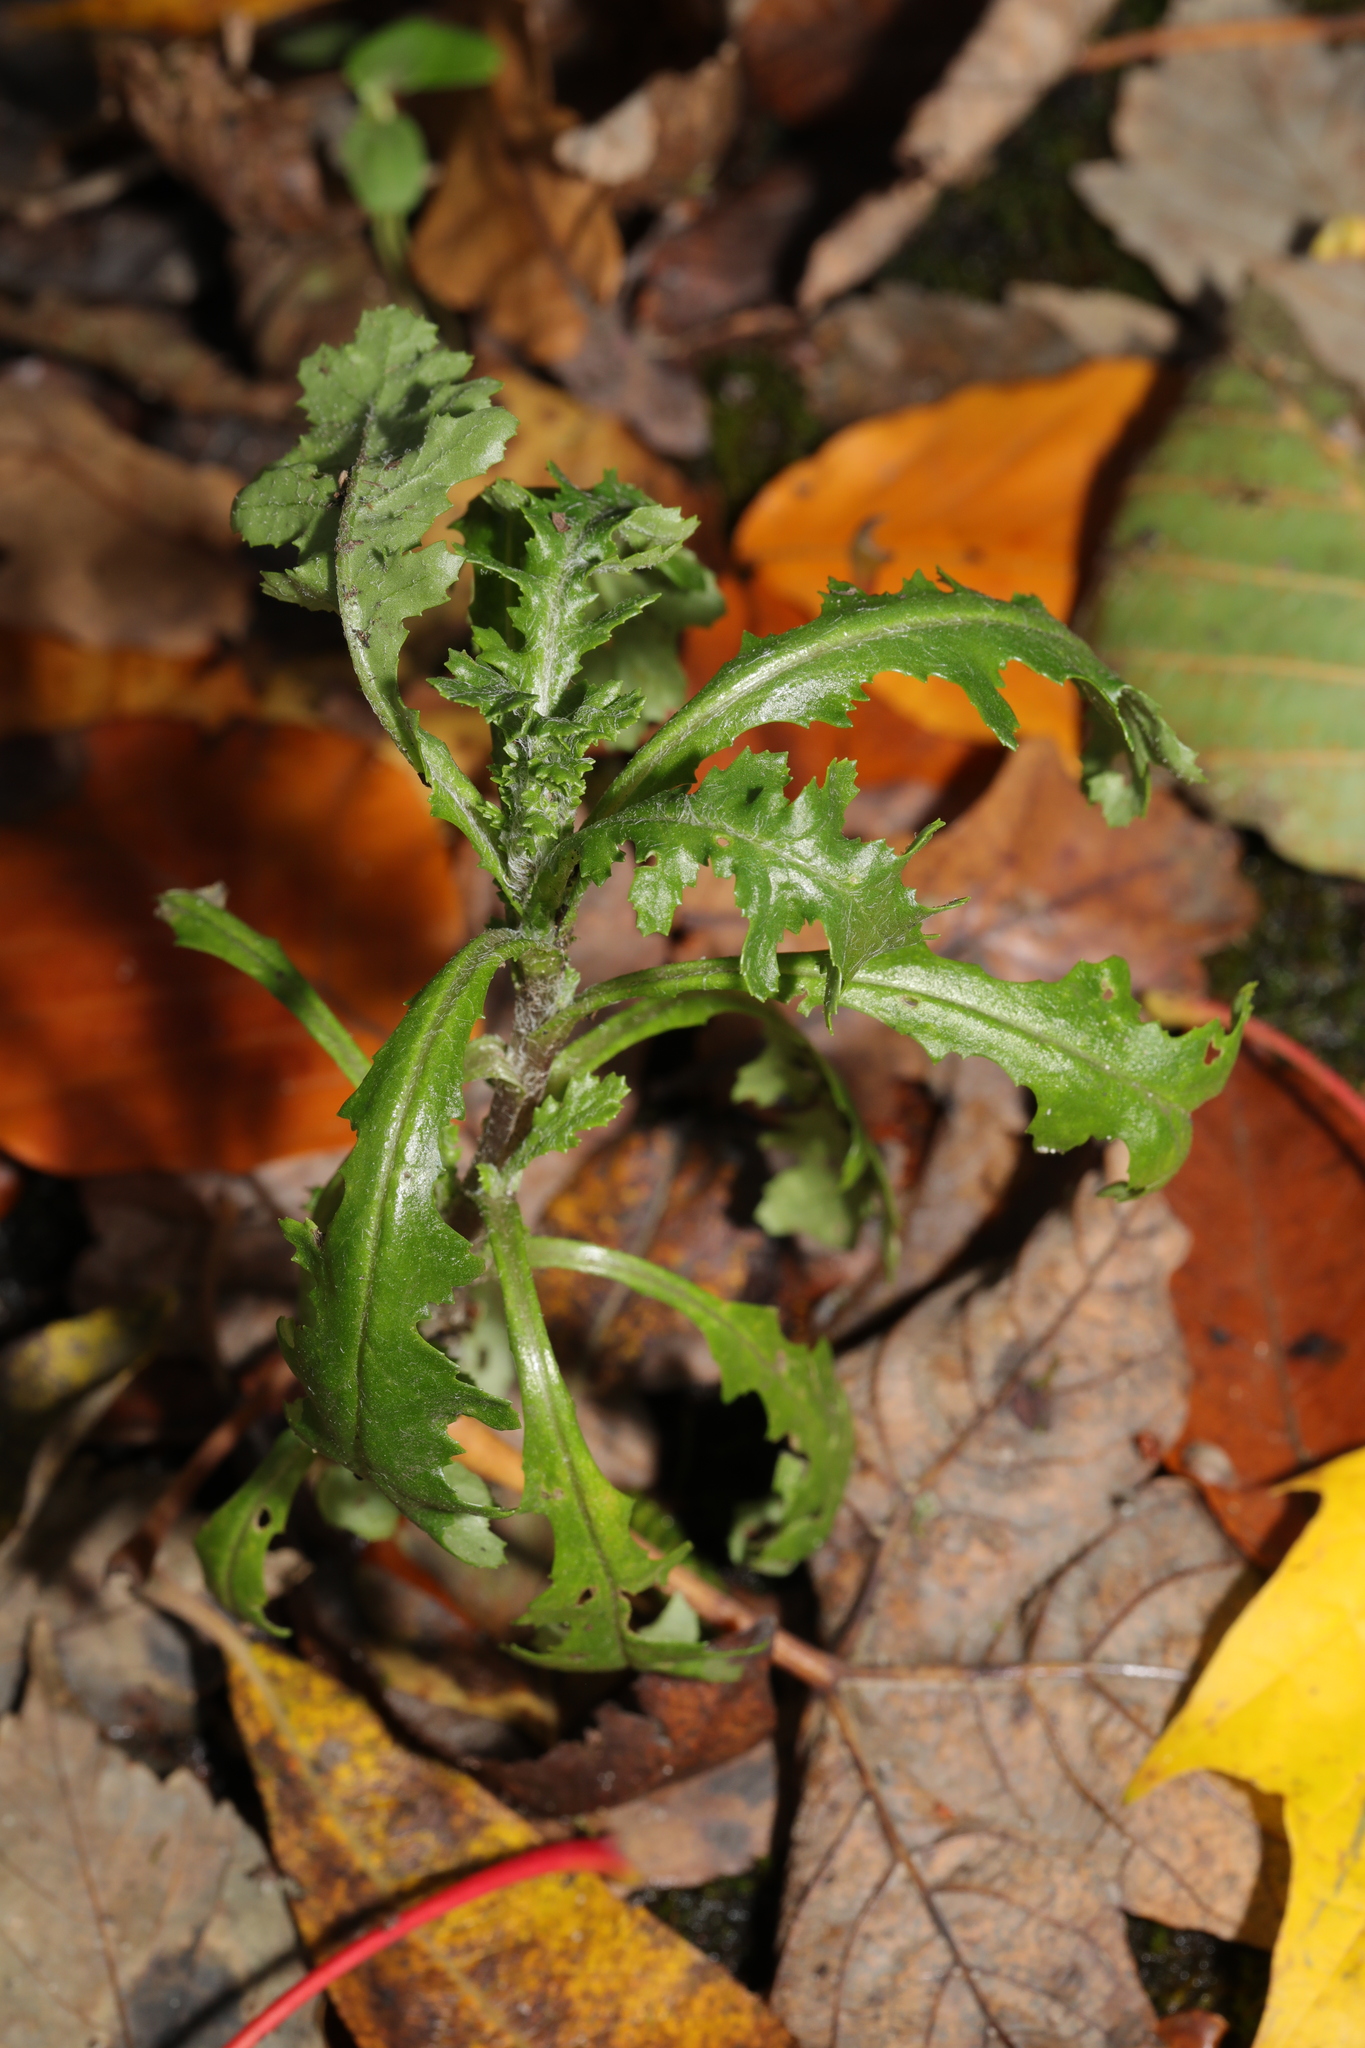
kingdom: Plantae
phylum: Tracheophyta
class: Magnoliopsida
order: Asterales
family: Asteraceae
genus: Senecio
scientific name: Senecio vulgaris
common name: Old-man-in-the-spring
